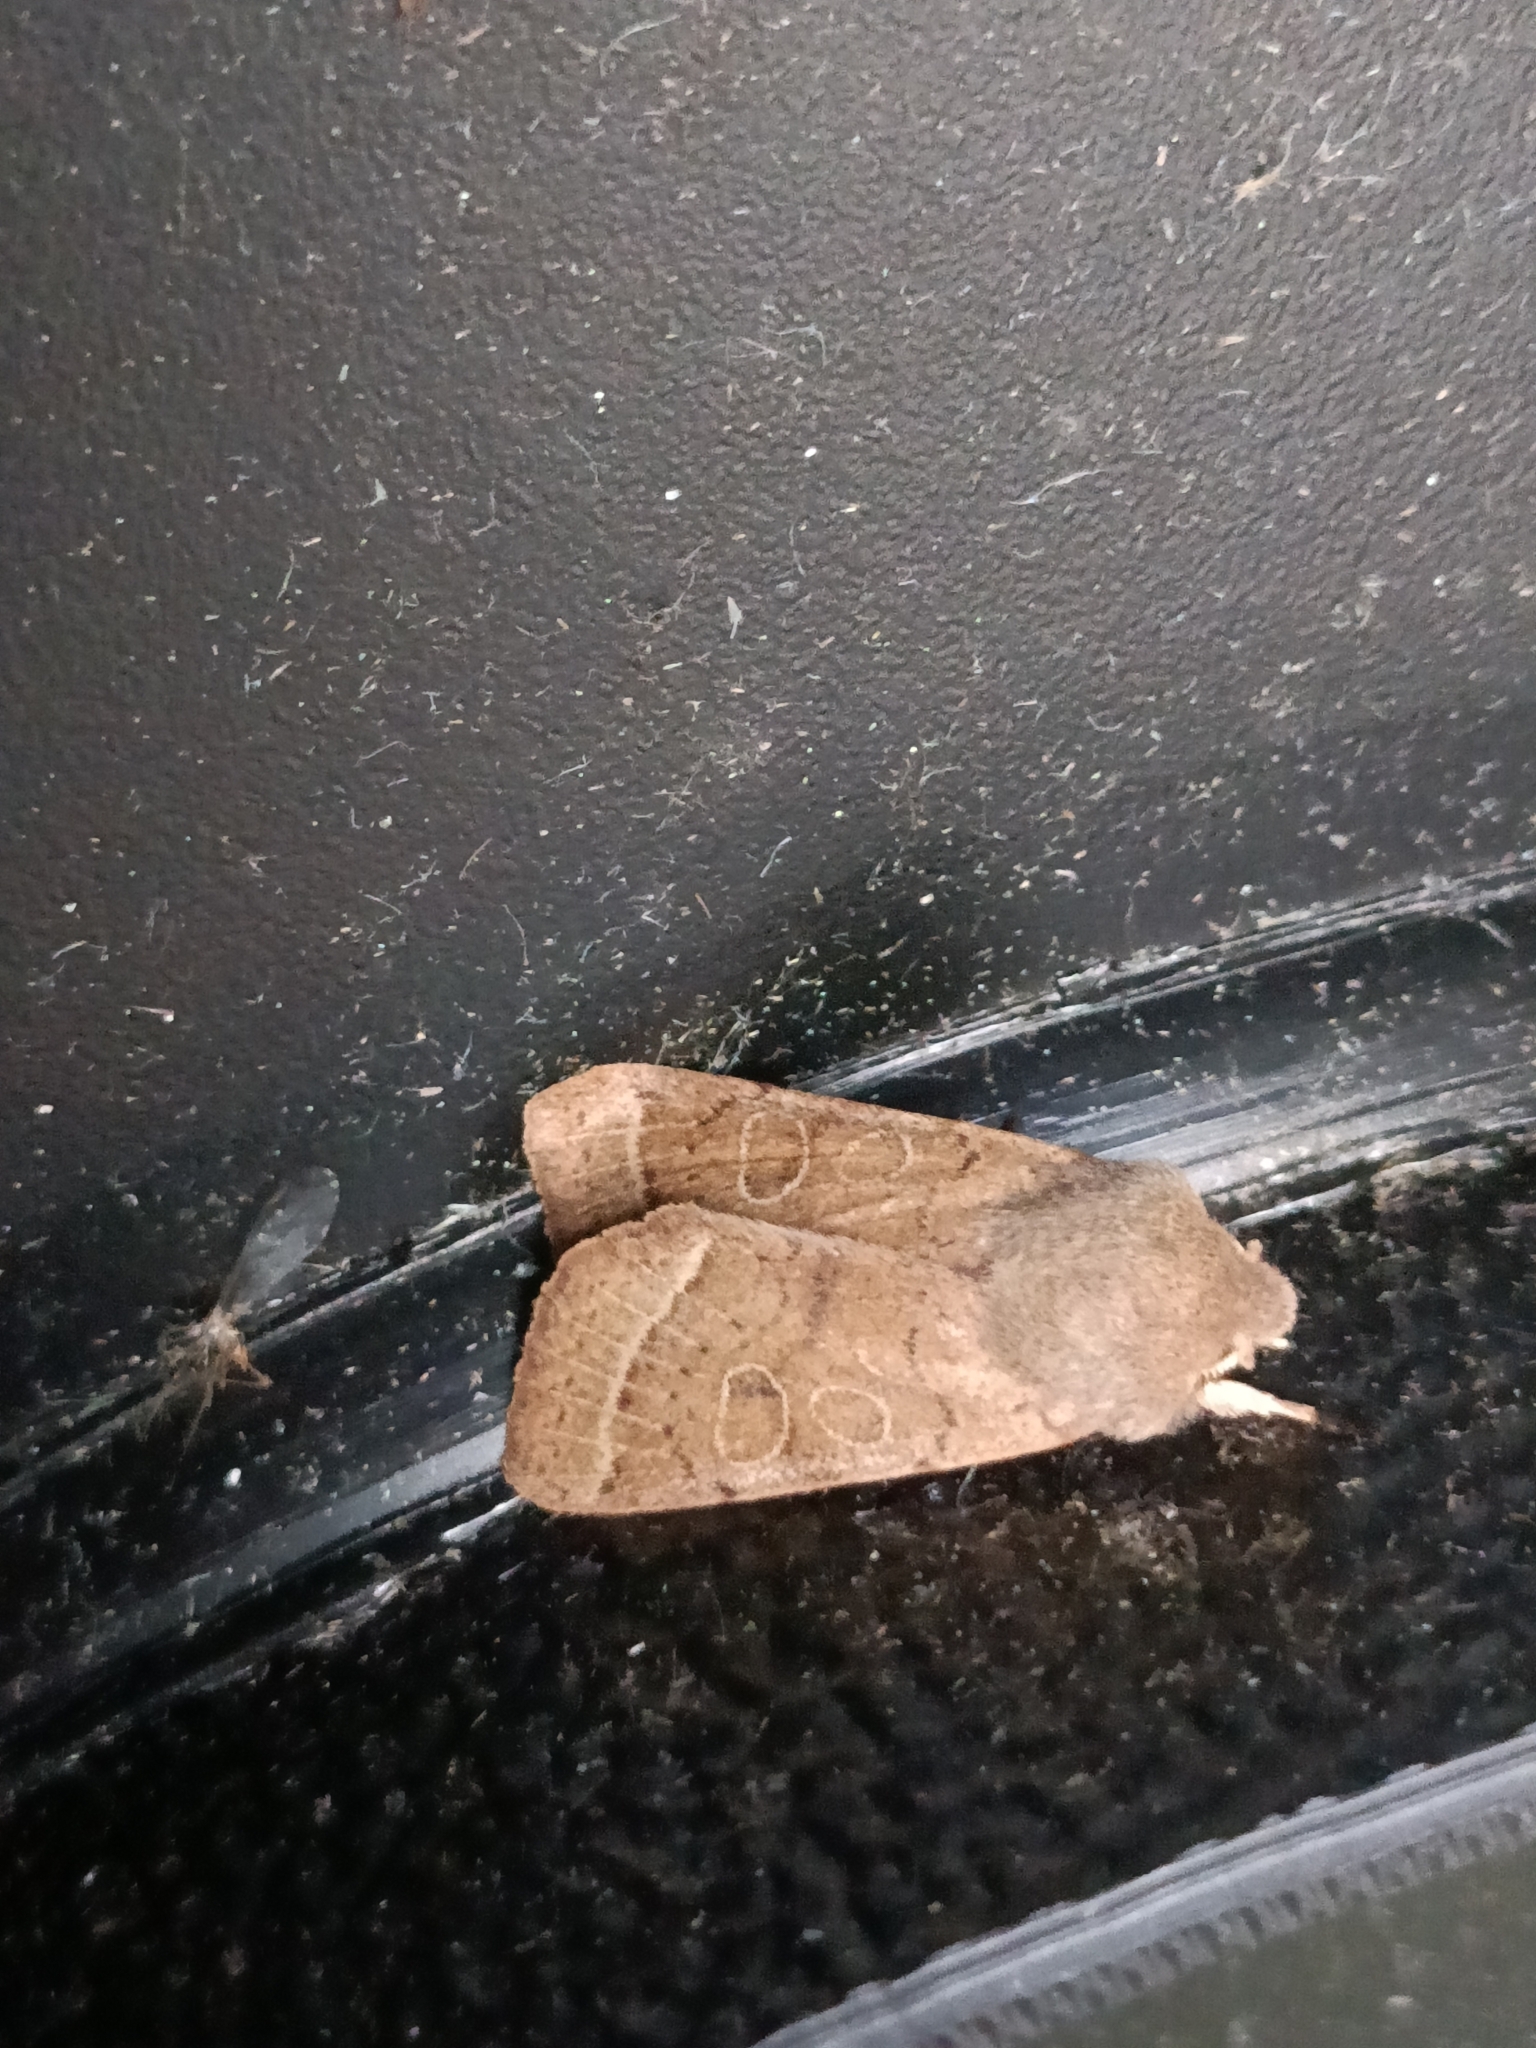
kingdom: Animalia
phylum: Arthropoda
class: Insecta
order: Lepidoptera
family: Noctuidae
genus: Orthosia
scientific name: Orthosia cerasi
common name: Common quaker
